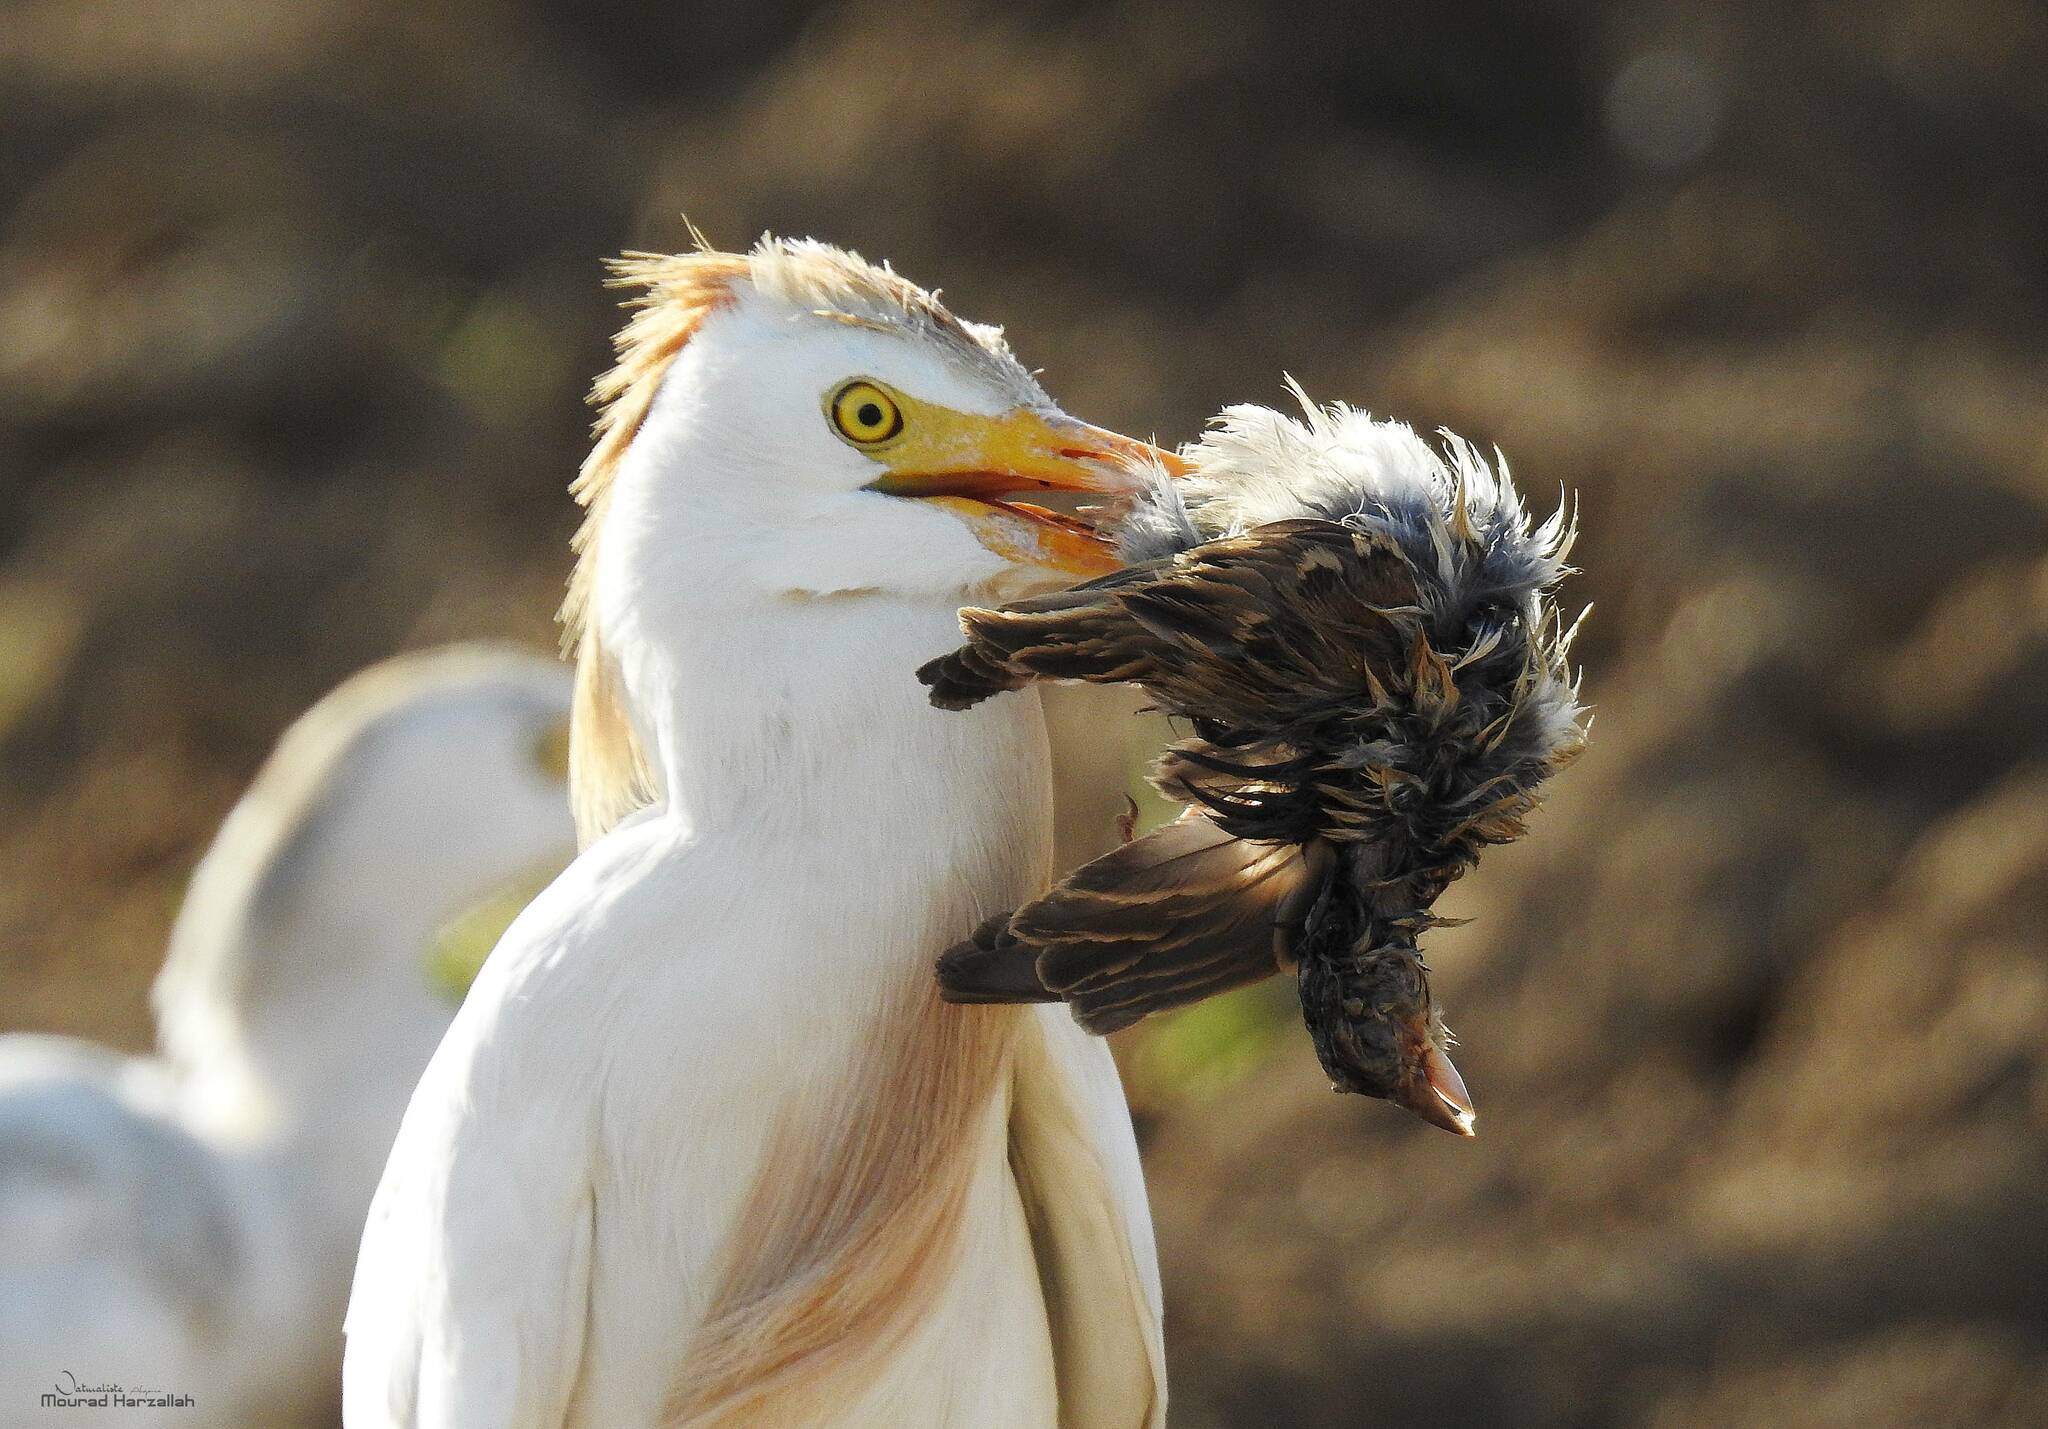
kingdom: Animalia
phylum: Chordata
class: Aves
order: Pelecaniformes
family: Ardeidae
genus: Bubulcus
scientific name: Bubulcus ibis
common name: Cattle egret
